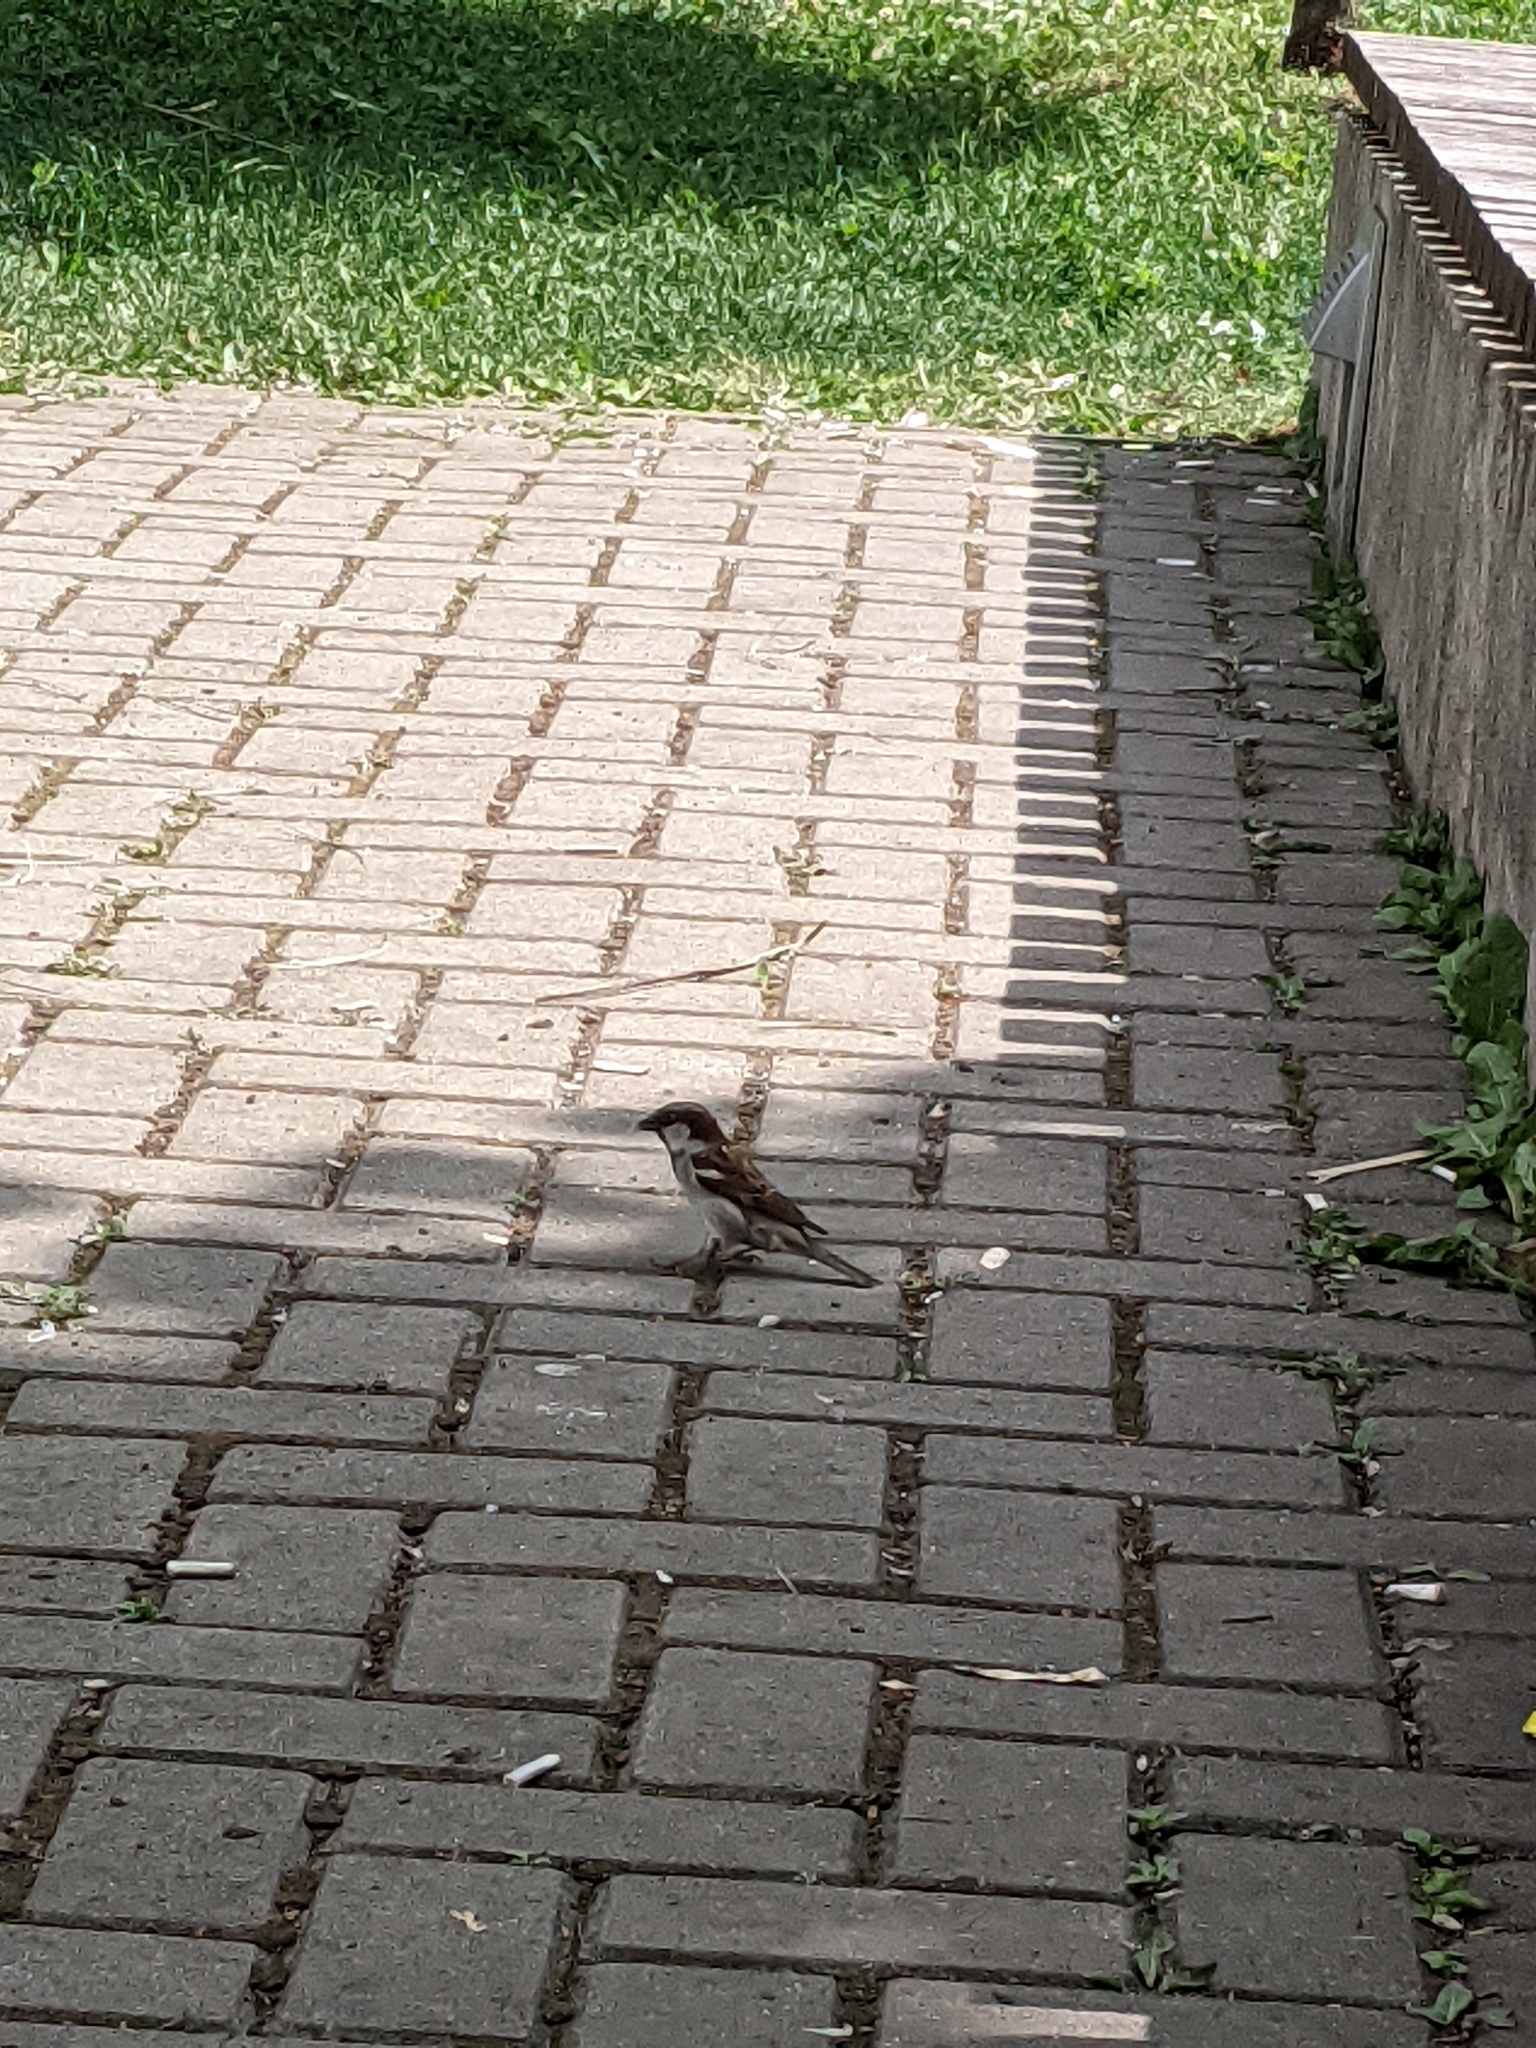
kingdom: Animalia
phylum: Chordata
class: Aves
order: Passeriformes
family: Passeridae
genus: Passer
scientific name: Passer domesticus
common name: House sparrow
